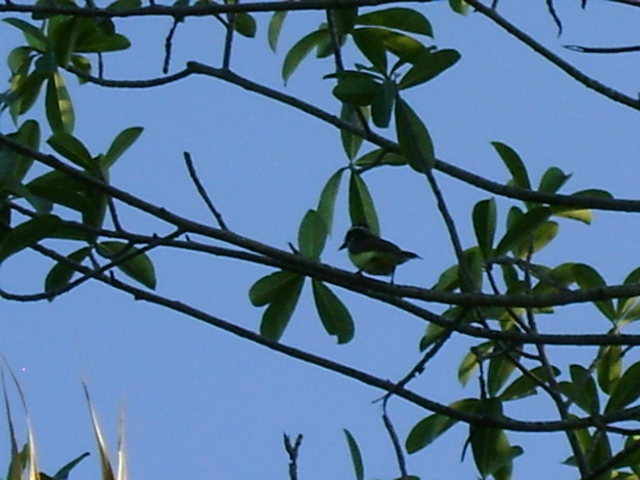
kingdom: Animalia
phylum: Chordata
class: Aves
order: Passeriformes
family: Tyrannidae
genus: Myiozetetes
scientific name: Myiozetetes similis
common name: Social flycatcher
